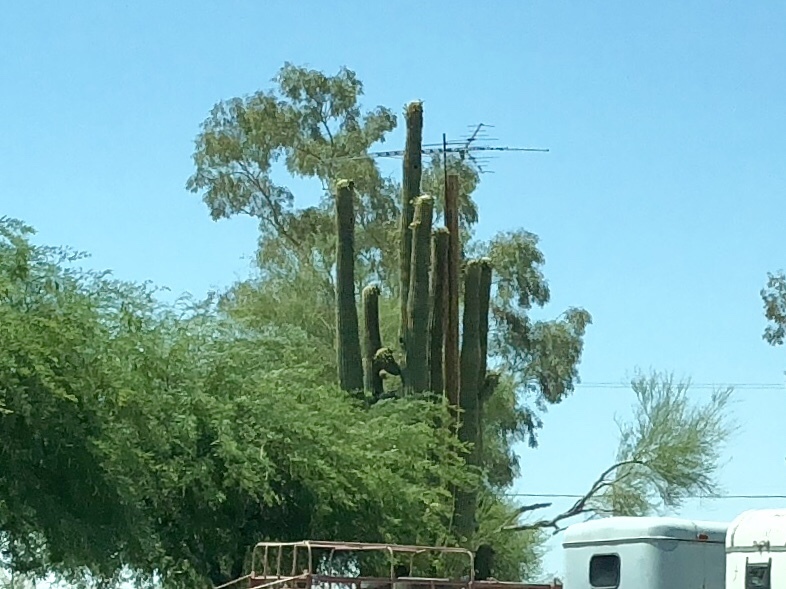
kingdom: Plantae
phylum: Tracheophyta
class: Magnoliopsida
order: Caryophyllales
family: Cactaceae
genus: Carnegiea
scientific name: Carnegiea gigantea
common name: Saguaro
